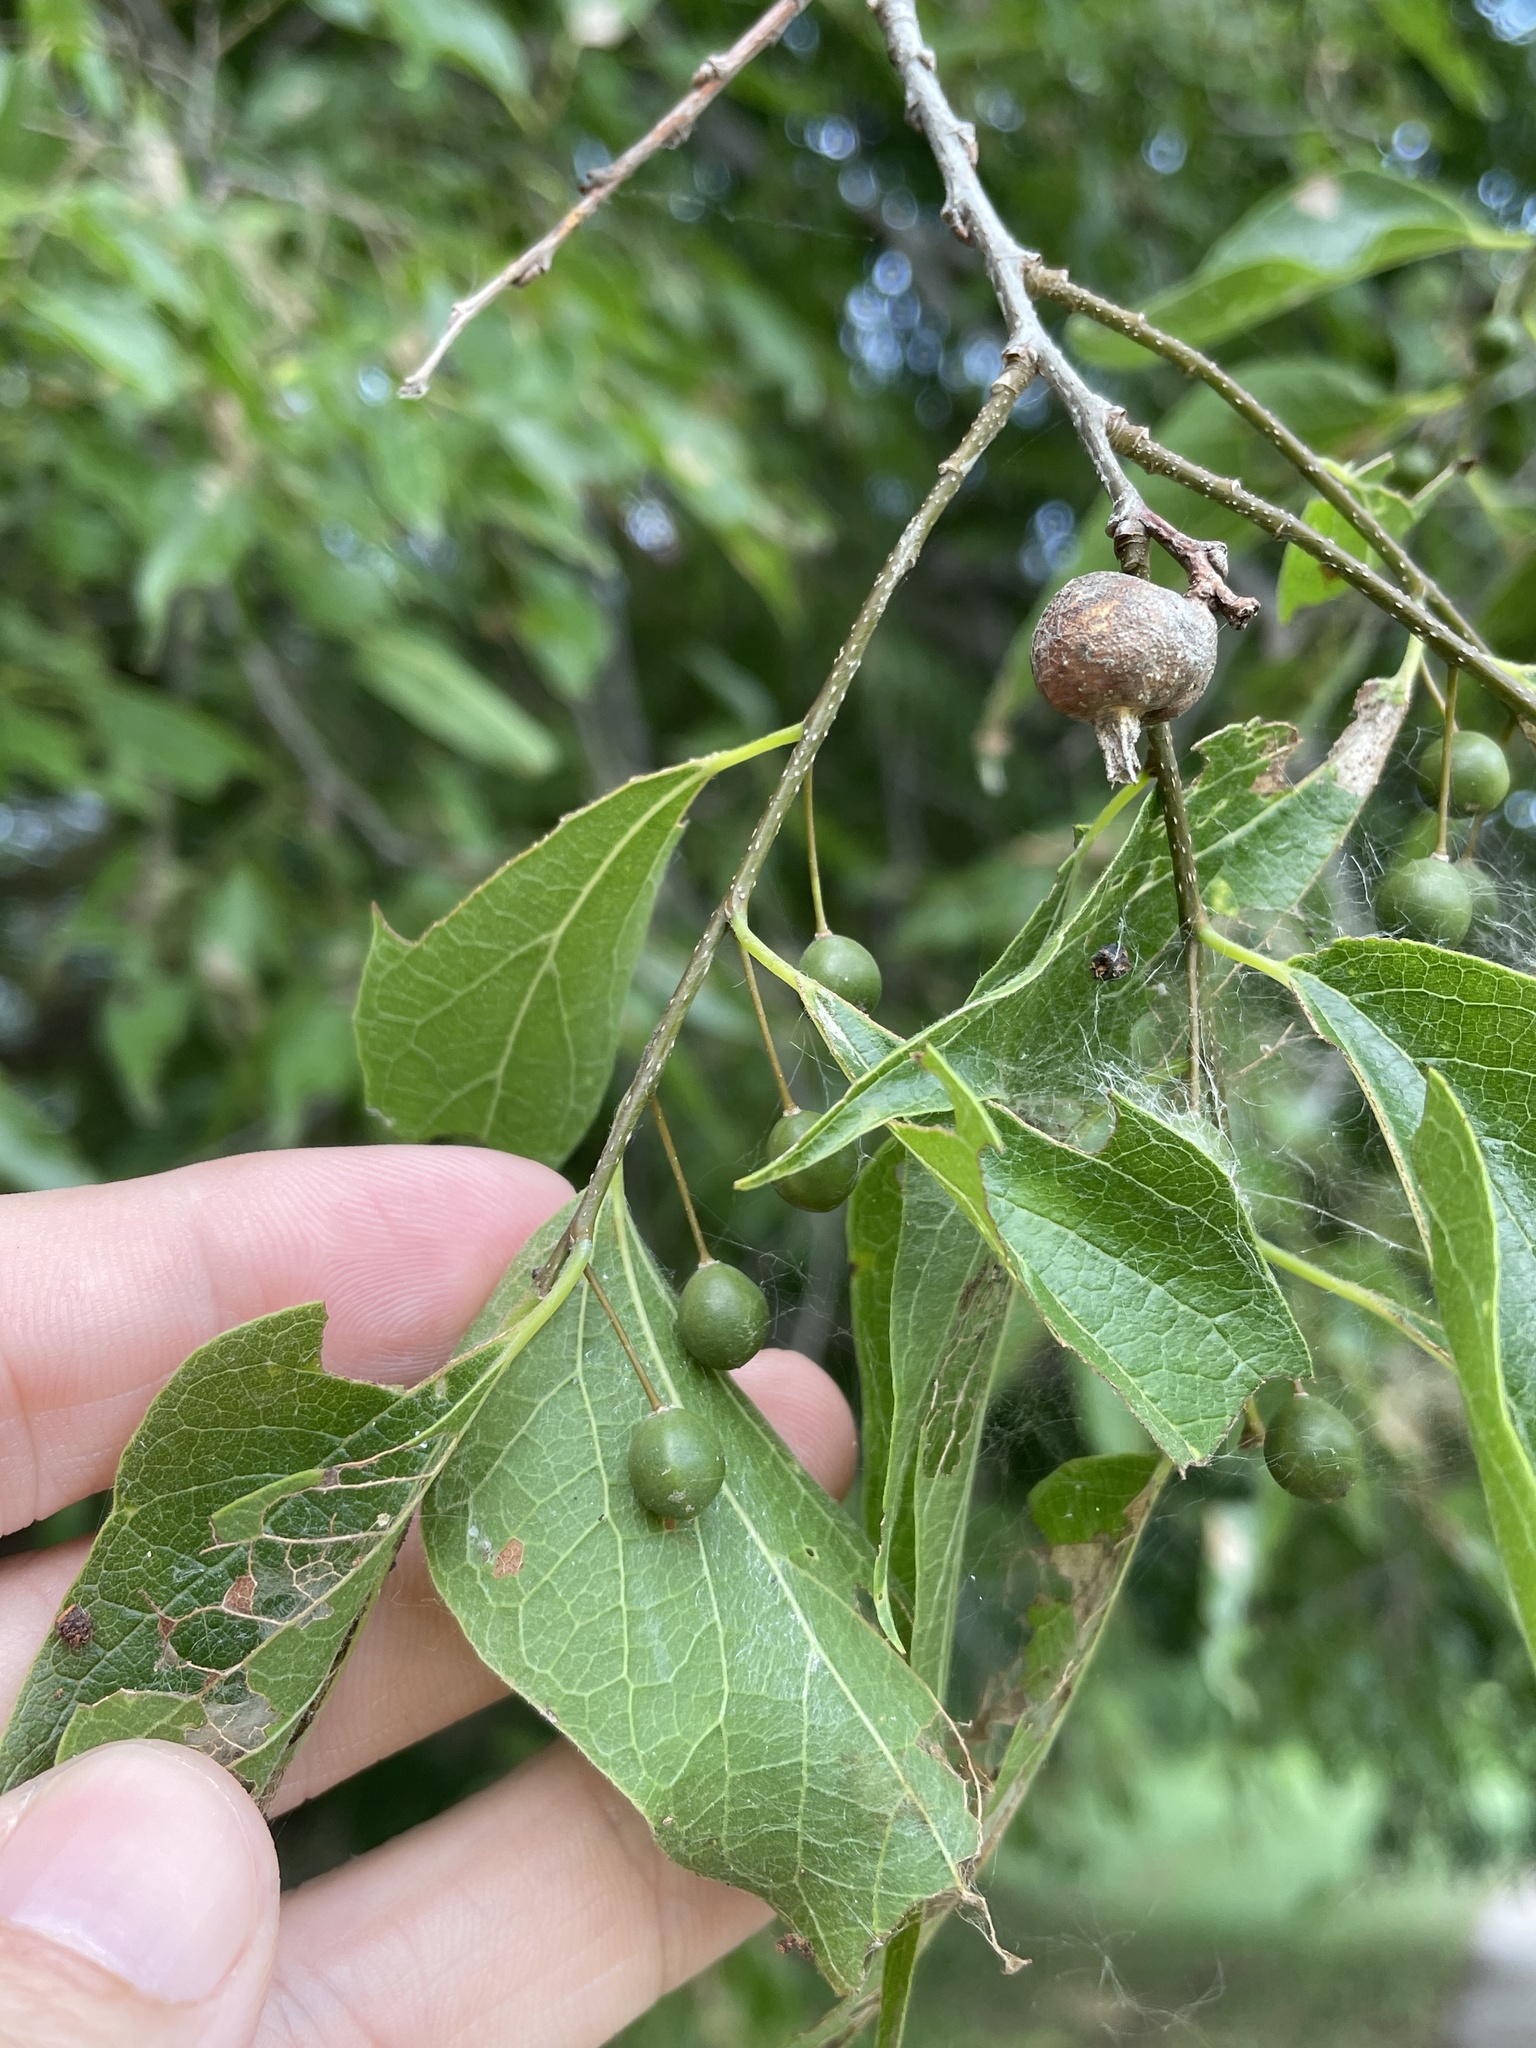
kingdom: Plantae
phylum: Tracheophyta
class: Magnoliopsida
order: Rosales
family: Cannabaceae
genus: Celtis
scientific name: Celtis laevigata
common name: Sugarberry
